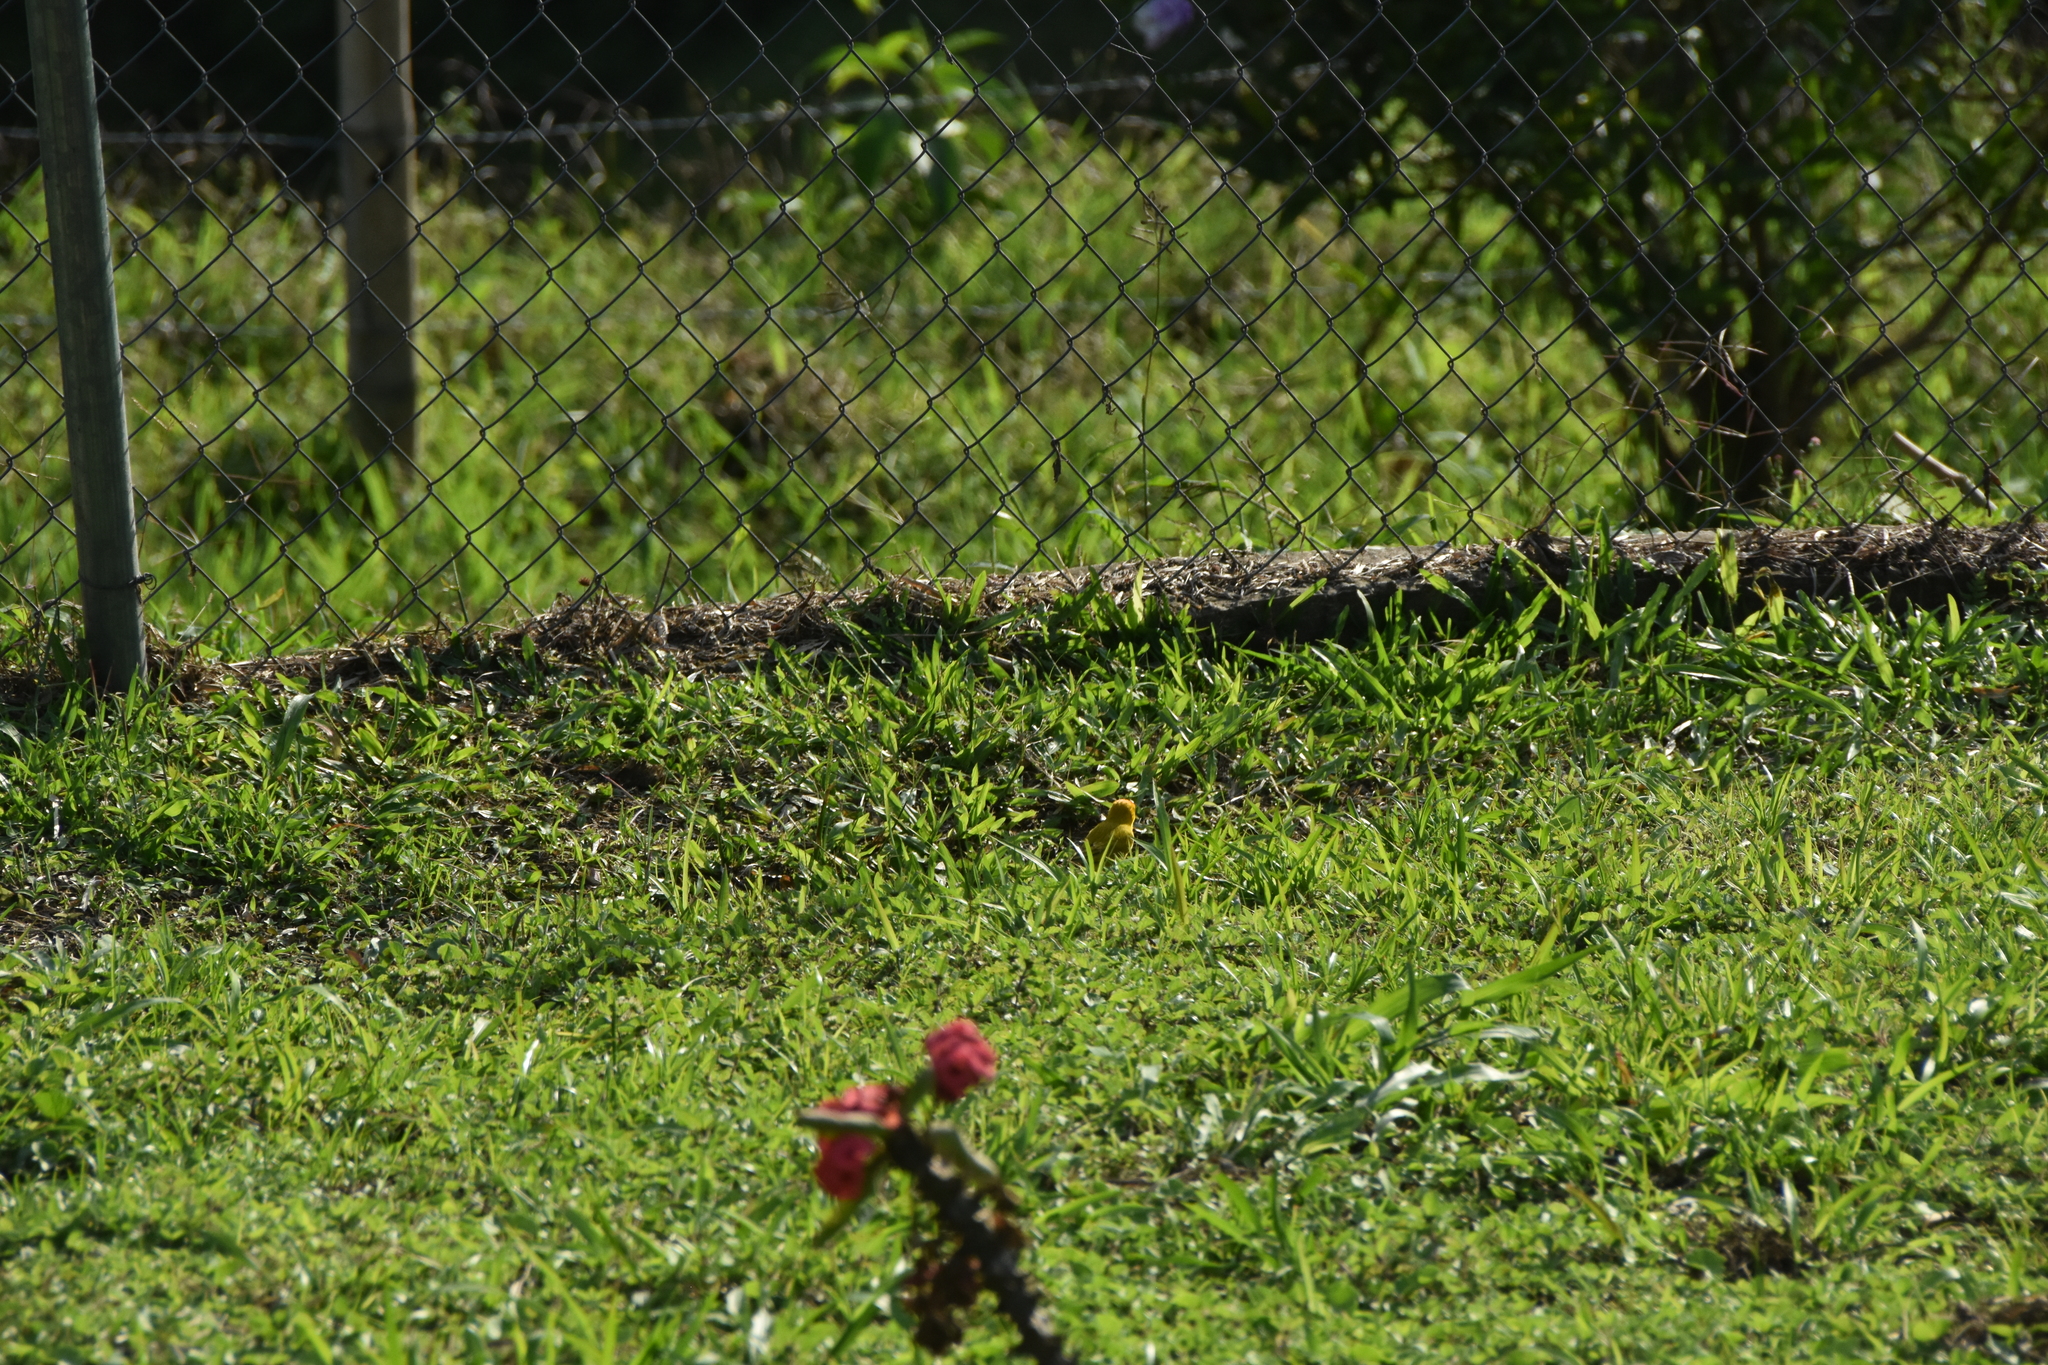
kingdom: Animalia
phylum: Chordata
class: Aves
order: Passeriformes
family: Thraupidae
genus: Sicalis
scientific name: Sicalis flaveola
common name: Saffron finch
